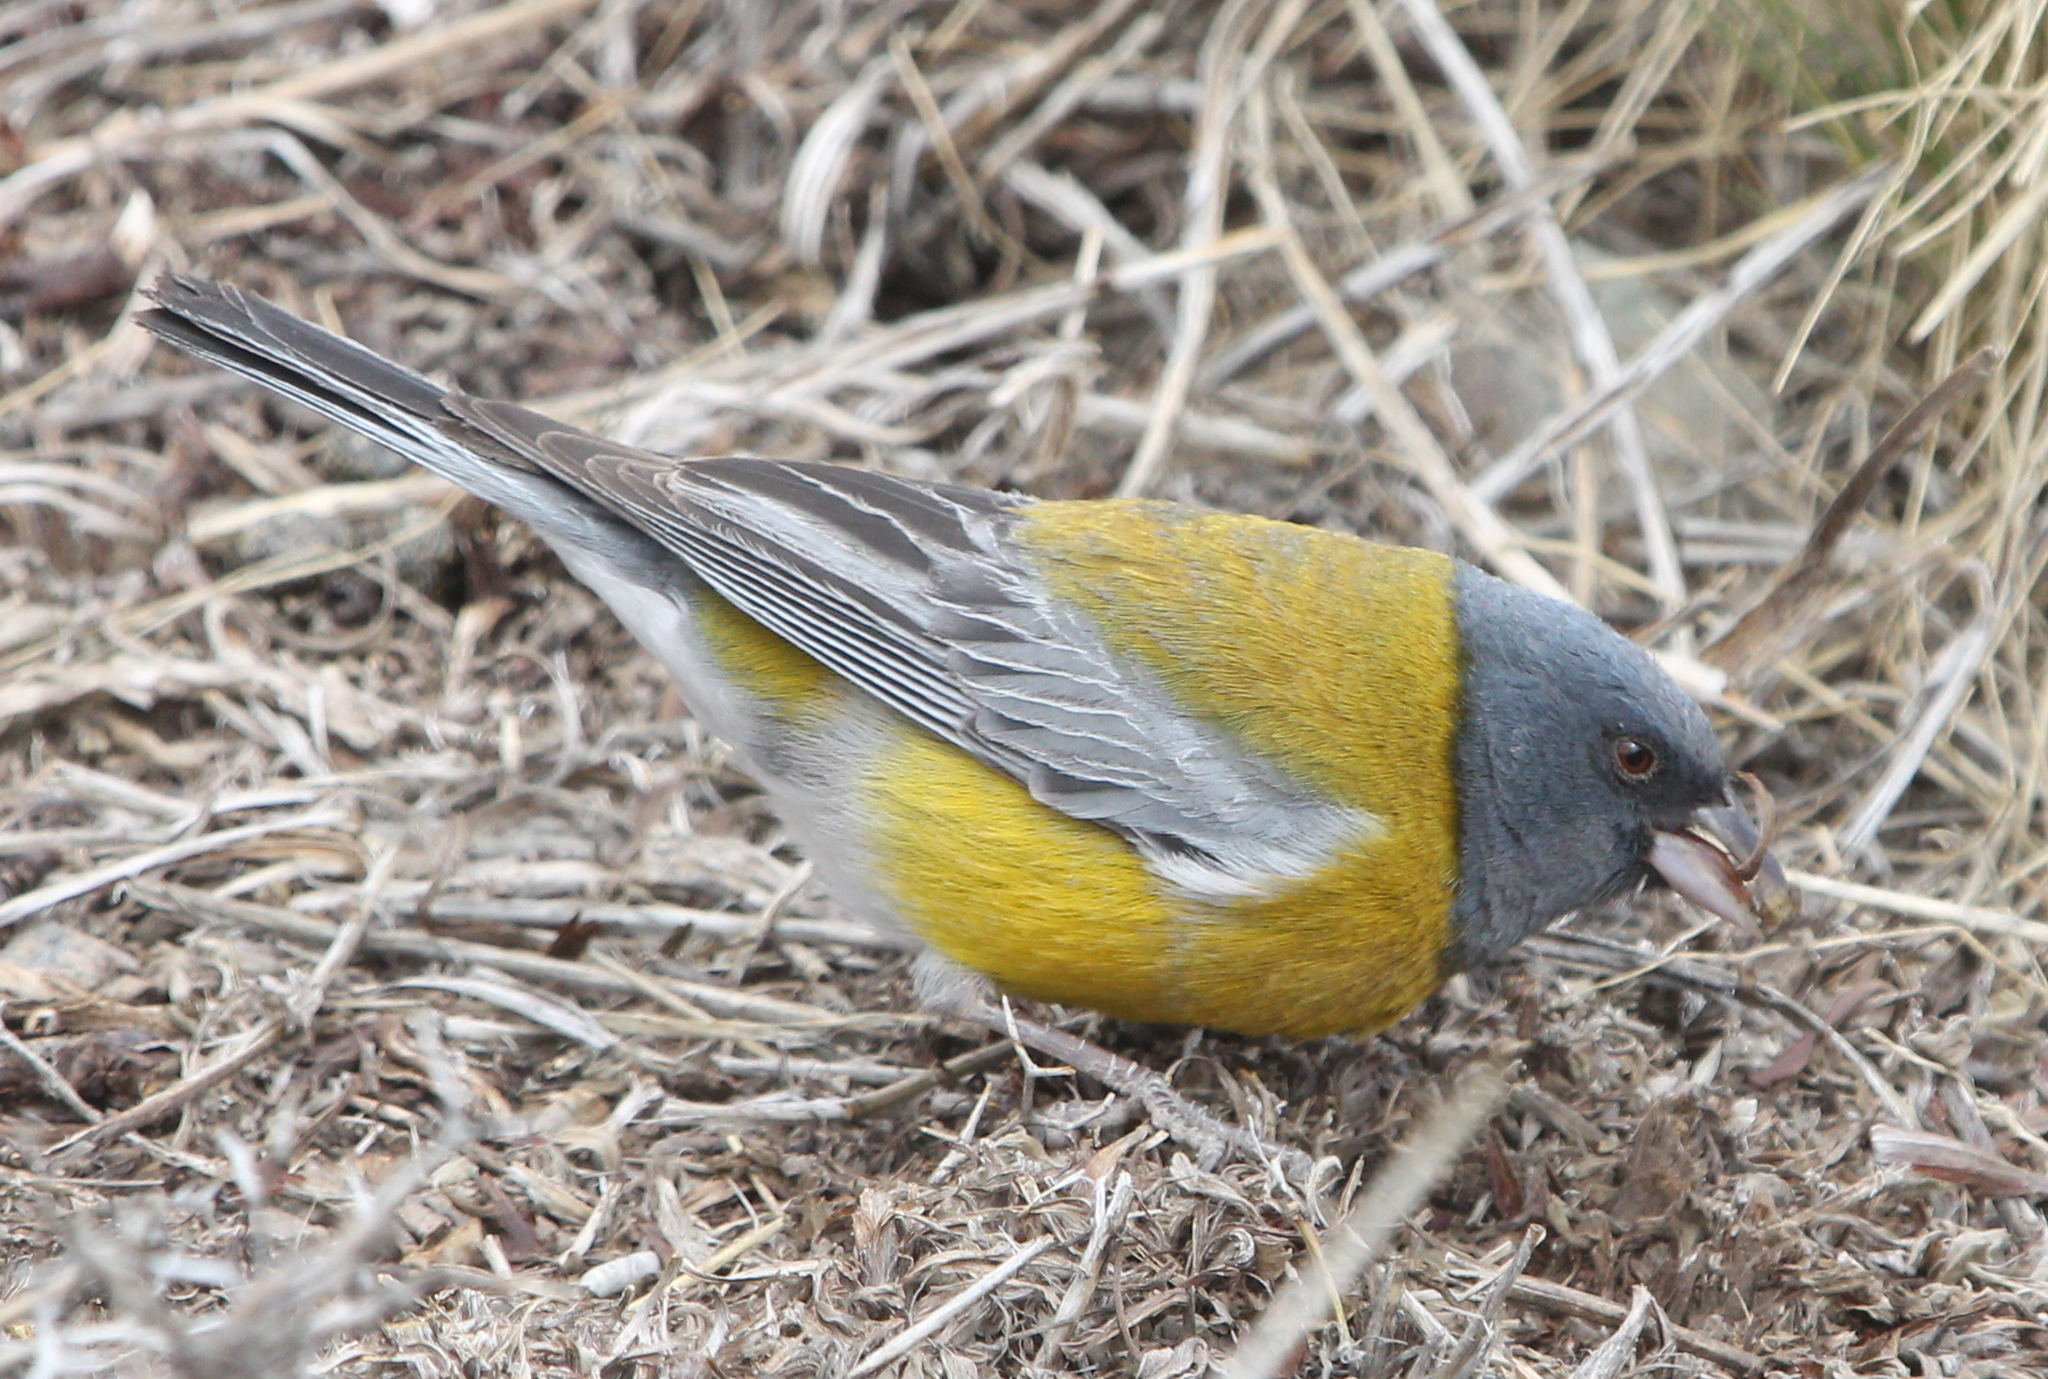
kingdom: Animalia
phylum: Chordata
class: Aves
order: Passeriformes
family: Thraupidae
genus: Phrygilus
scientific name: Phrygilus gayi
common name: Grey-hooded sierra finch
